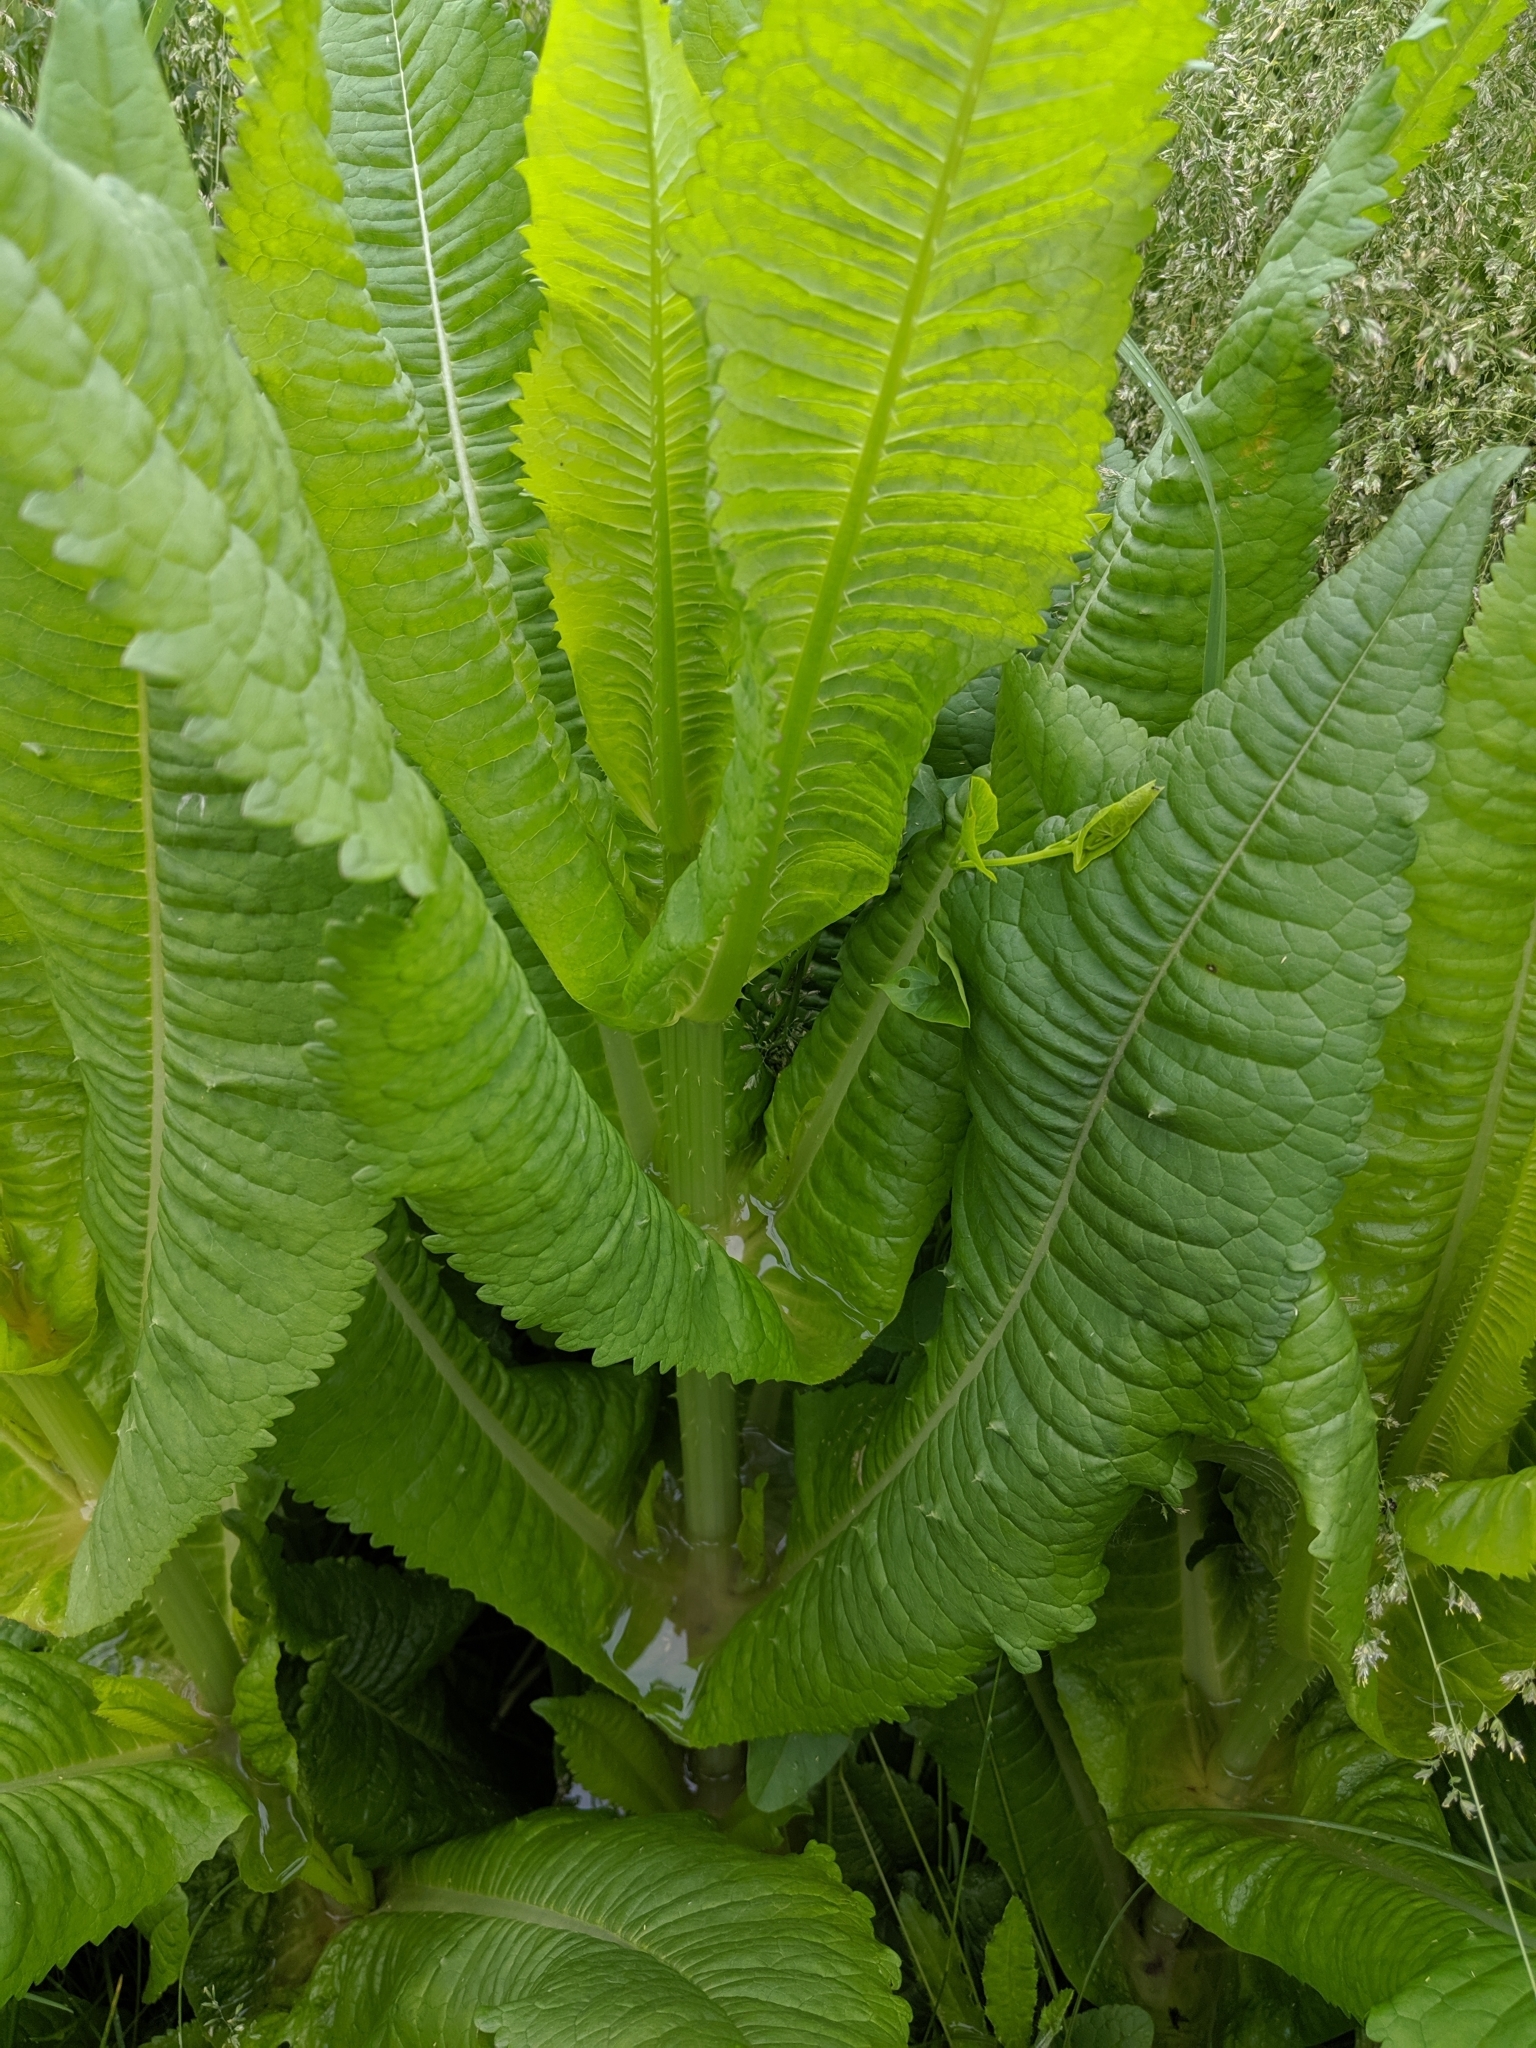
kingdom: Plantae
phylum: Tracheophyta
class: Magnoliopsida
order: Dipsacales
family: Caprifoliaceae
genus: Dipsacus
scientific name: Dipsacus fullonum
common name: Teasel
